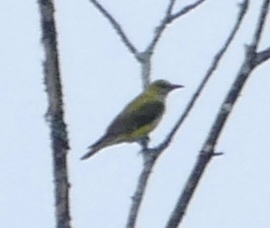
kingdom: Animalia
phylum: Chordata
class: Aves
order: Passeriformes
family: Oriolidae
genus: Oriolus
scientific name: Oriolus oriolus
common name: Eurasian golden oriole
